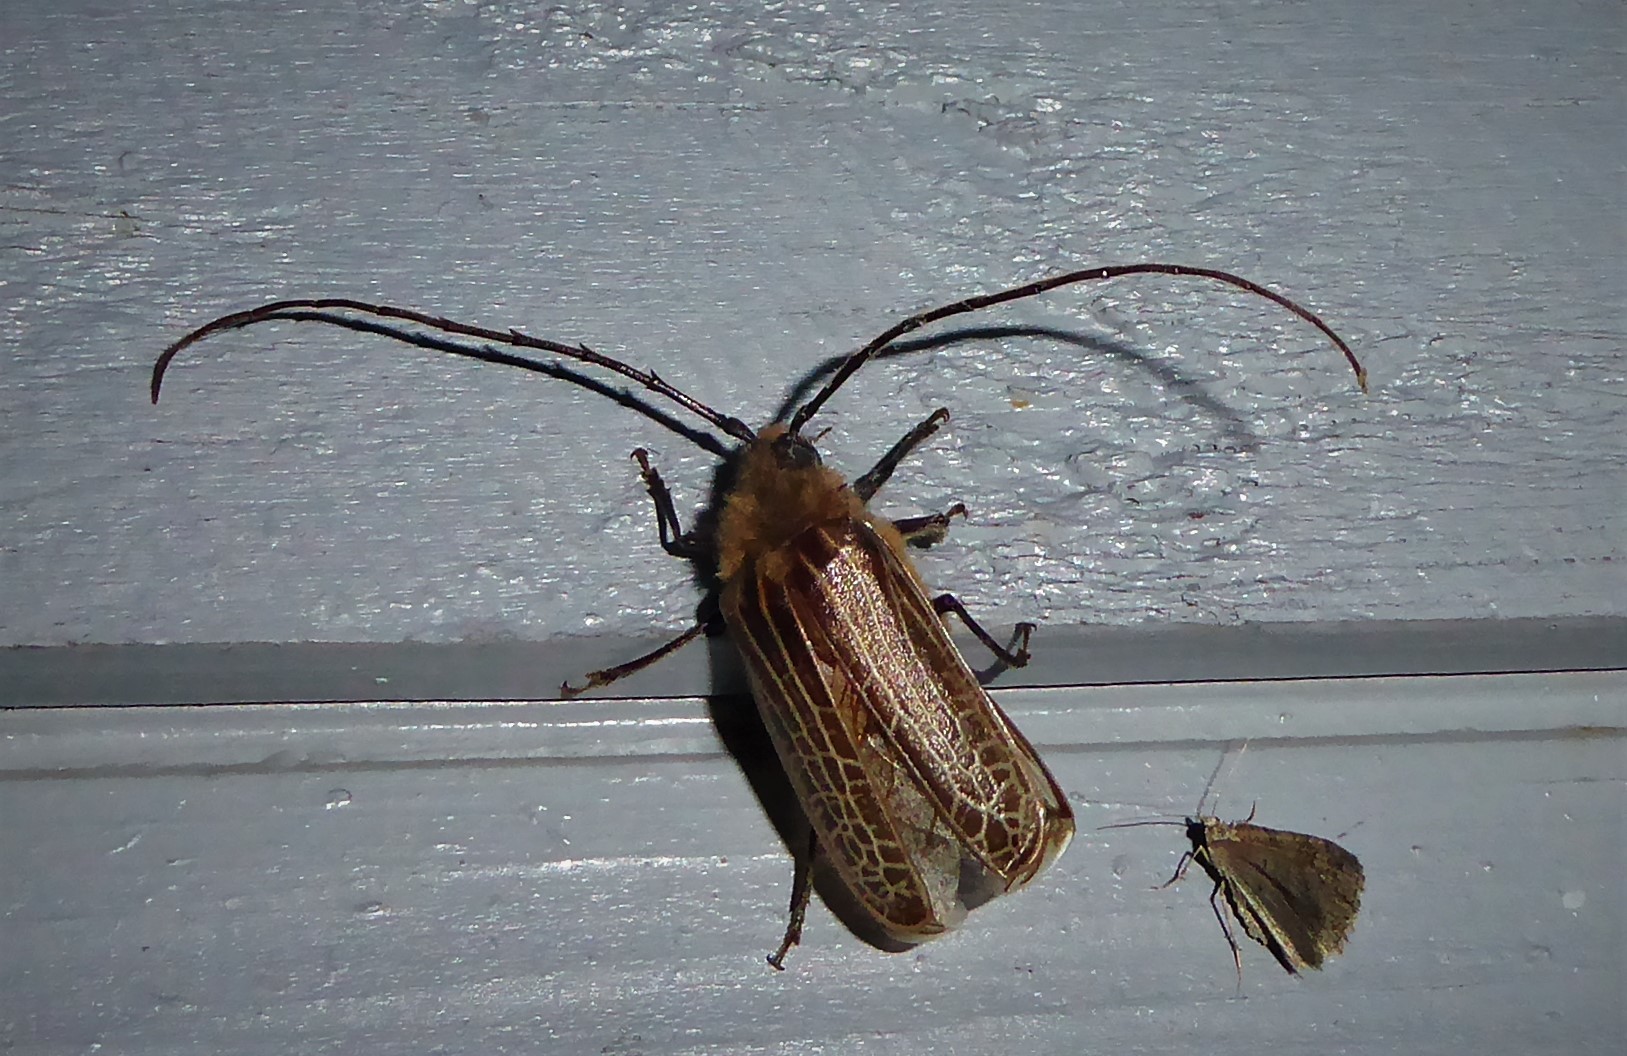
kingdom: Animalia
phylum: Arthropoda
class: Insecta
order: Coleoptera
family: Cerambycidae
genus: Prionoplus
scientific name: Prionoplus reticularis
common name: Huhu beetle
